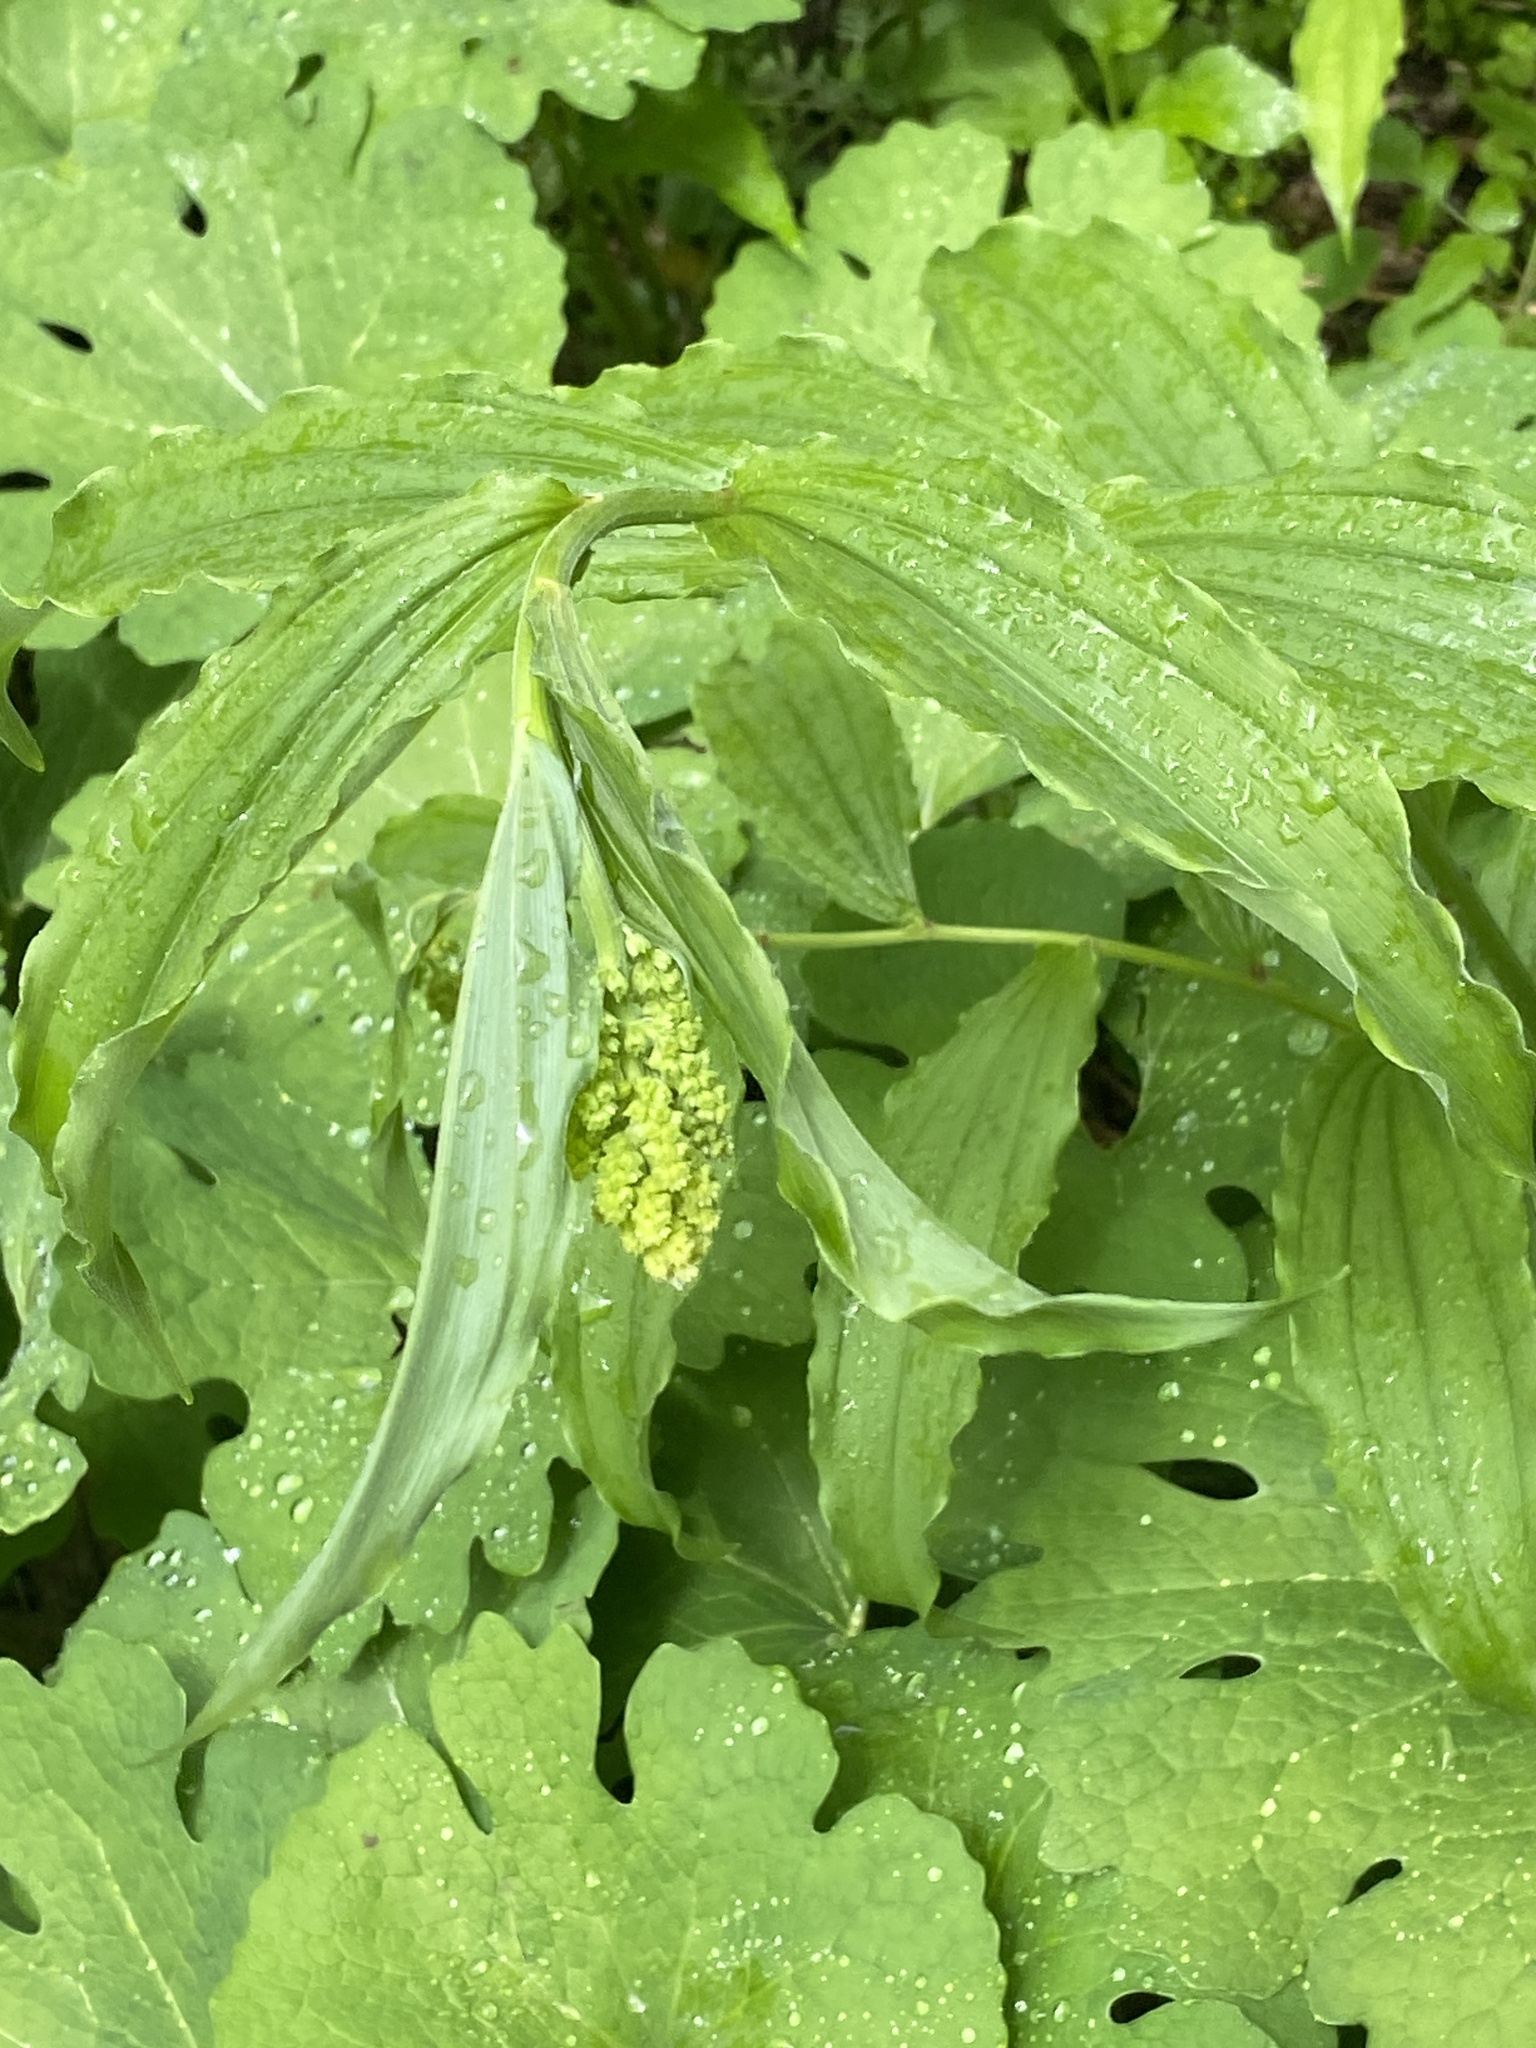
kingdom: Plantae
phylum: Tracheophyta
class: Liliopsida
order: Asparagales
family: Asparagaceae
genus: Maianthemum
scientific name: Maianthemum racemosum
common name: False spikenard
